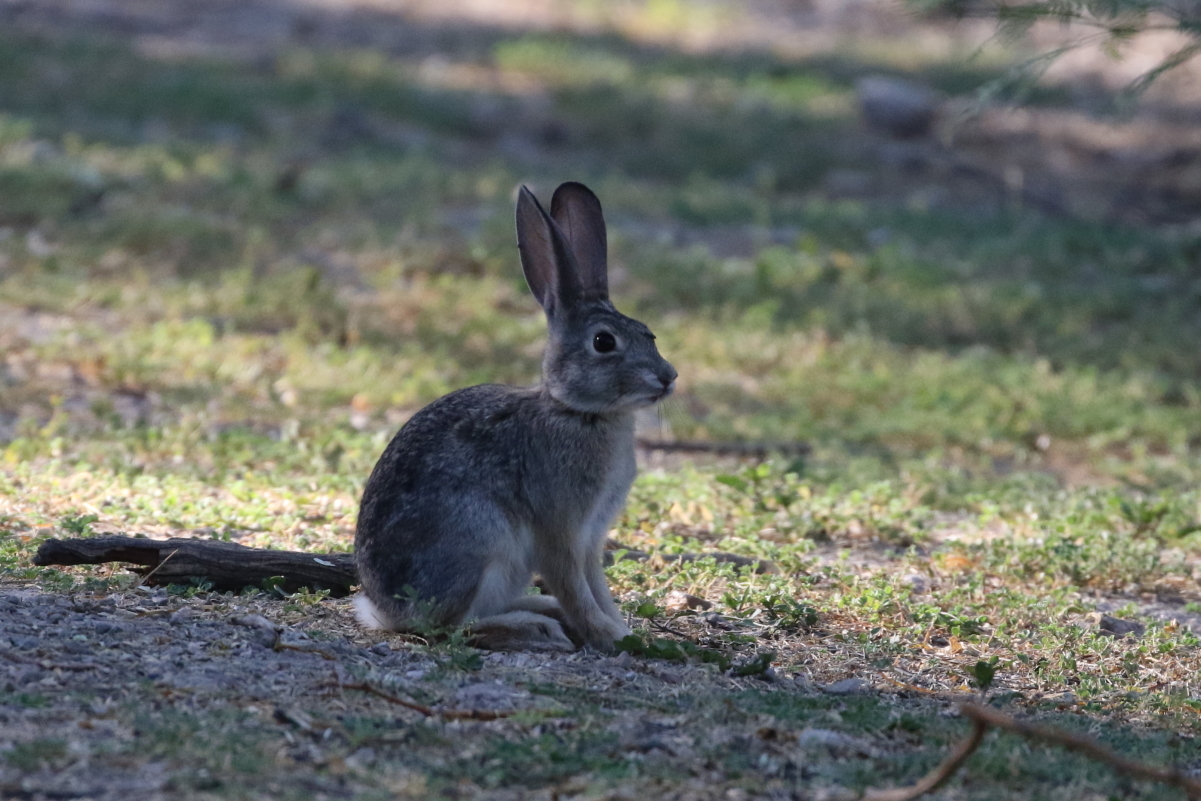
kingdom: Animalia
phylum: Chordata
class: Mammalia
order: Lagomorpha
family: Leporidae
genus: Sylvilagus
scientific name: Sylvilagus audubonii
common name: Desert cottontail
